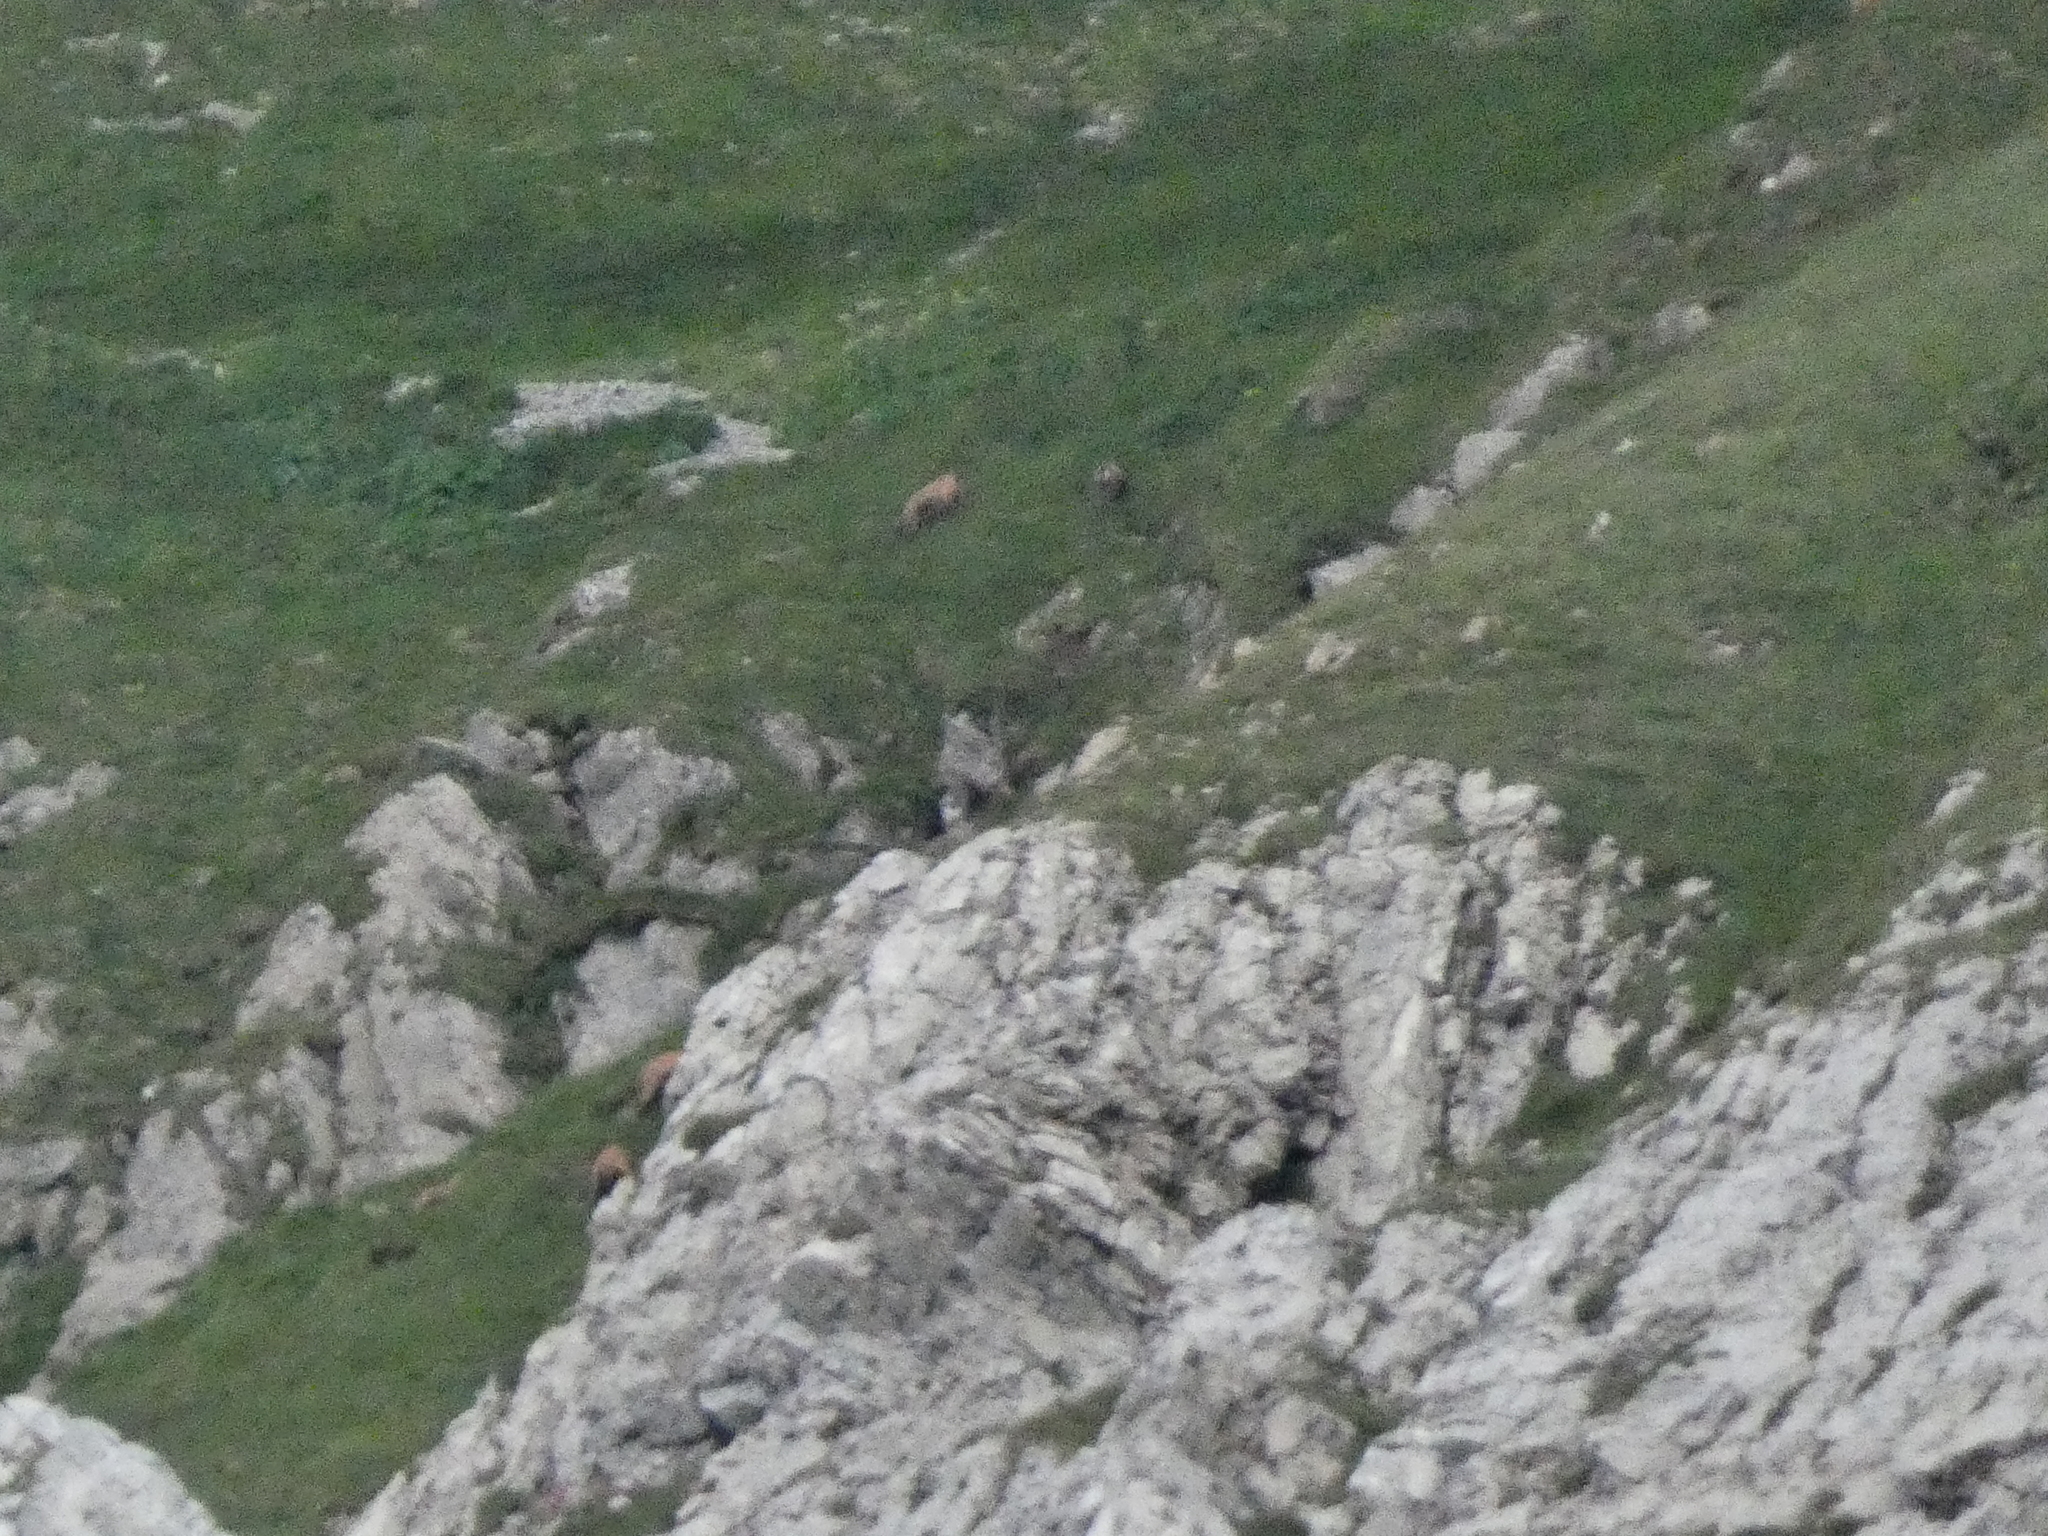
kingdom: Animalia
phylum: Chordata
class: Mammalia
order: Artiodactyla
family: Bovidae
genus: Rupicapra
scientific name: Rupicapra rupicapra
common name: Chamois
